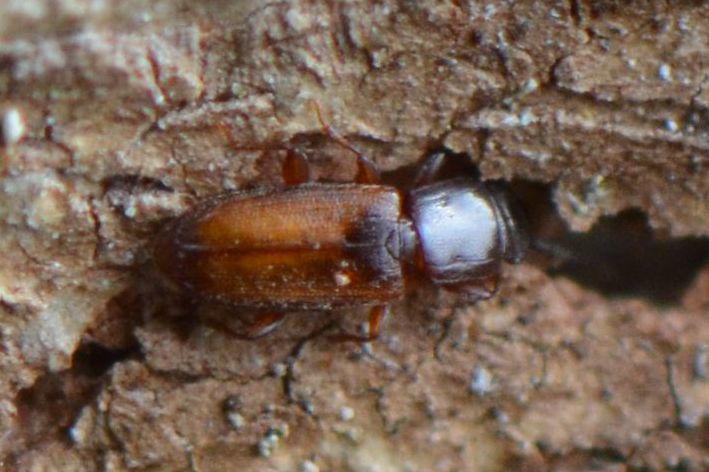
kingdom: Animalia
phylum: Arthropoda
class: Insecta
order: Coleoptera
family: Laemophloeidae
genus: Placonotus
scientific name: Placonotus testaceus
